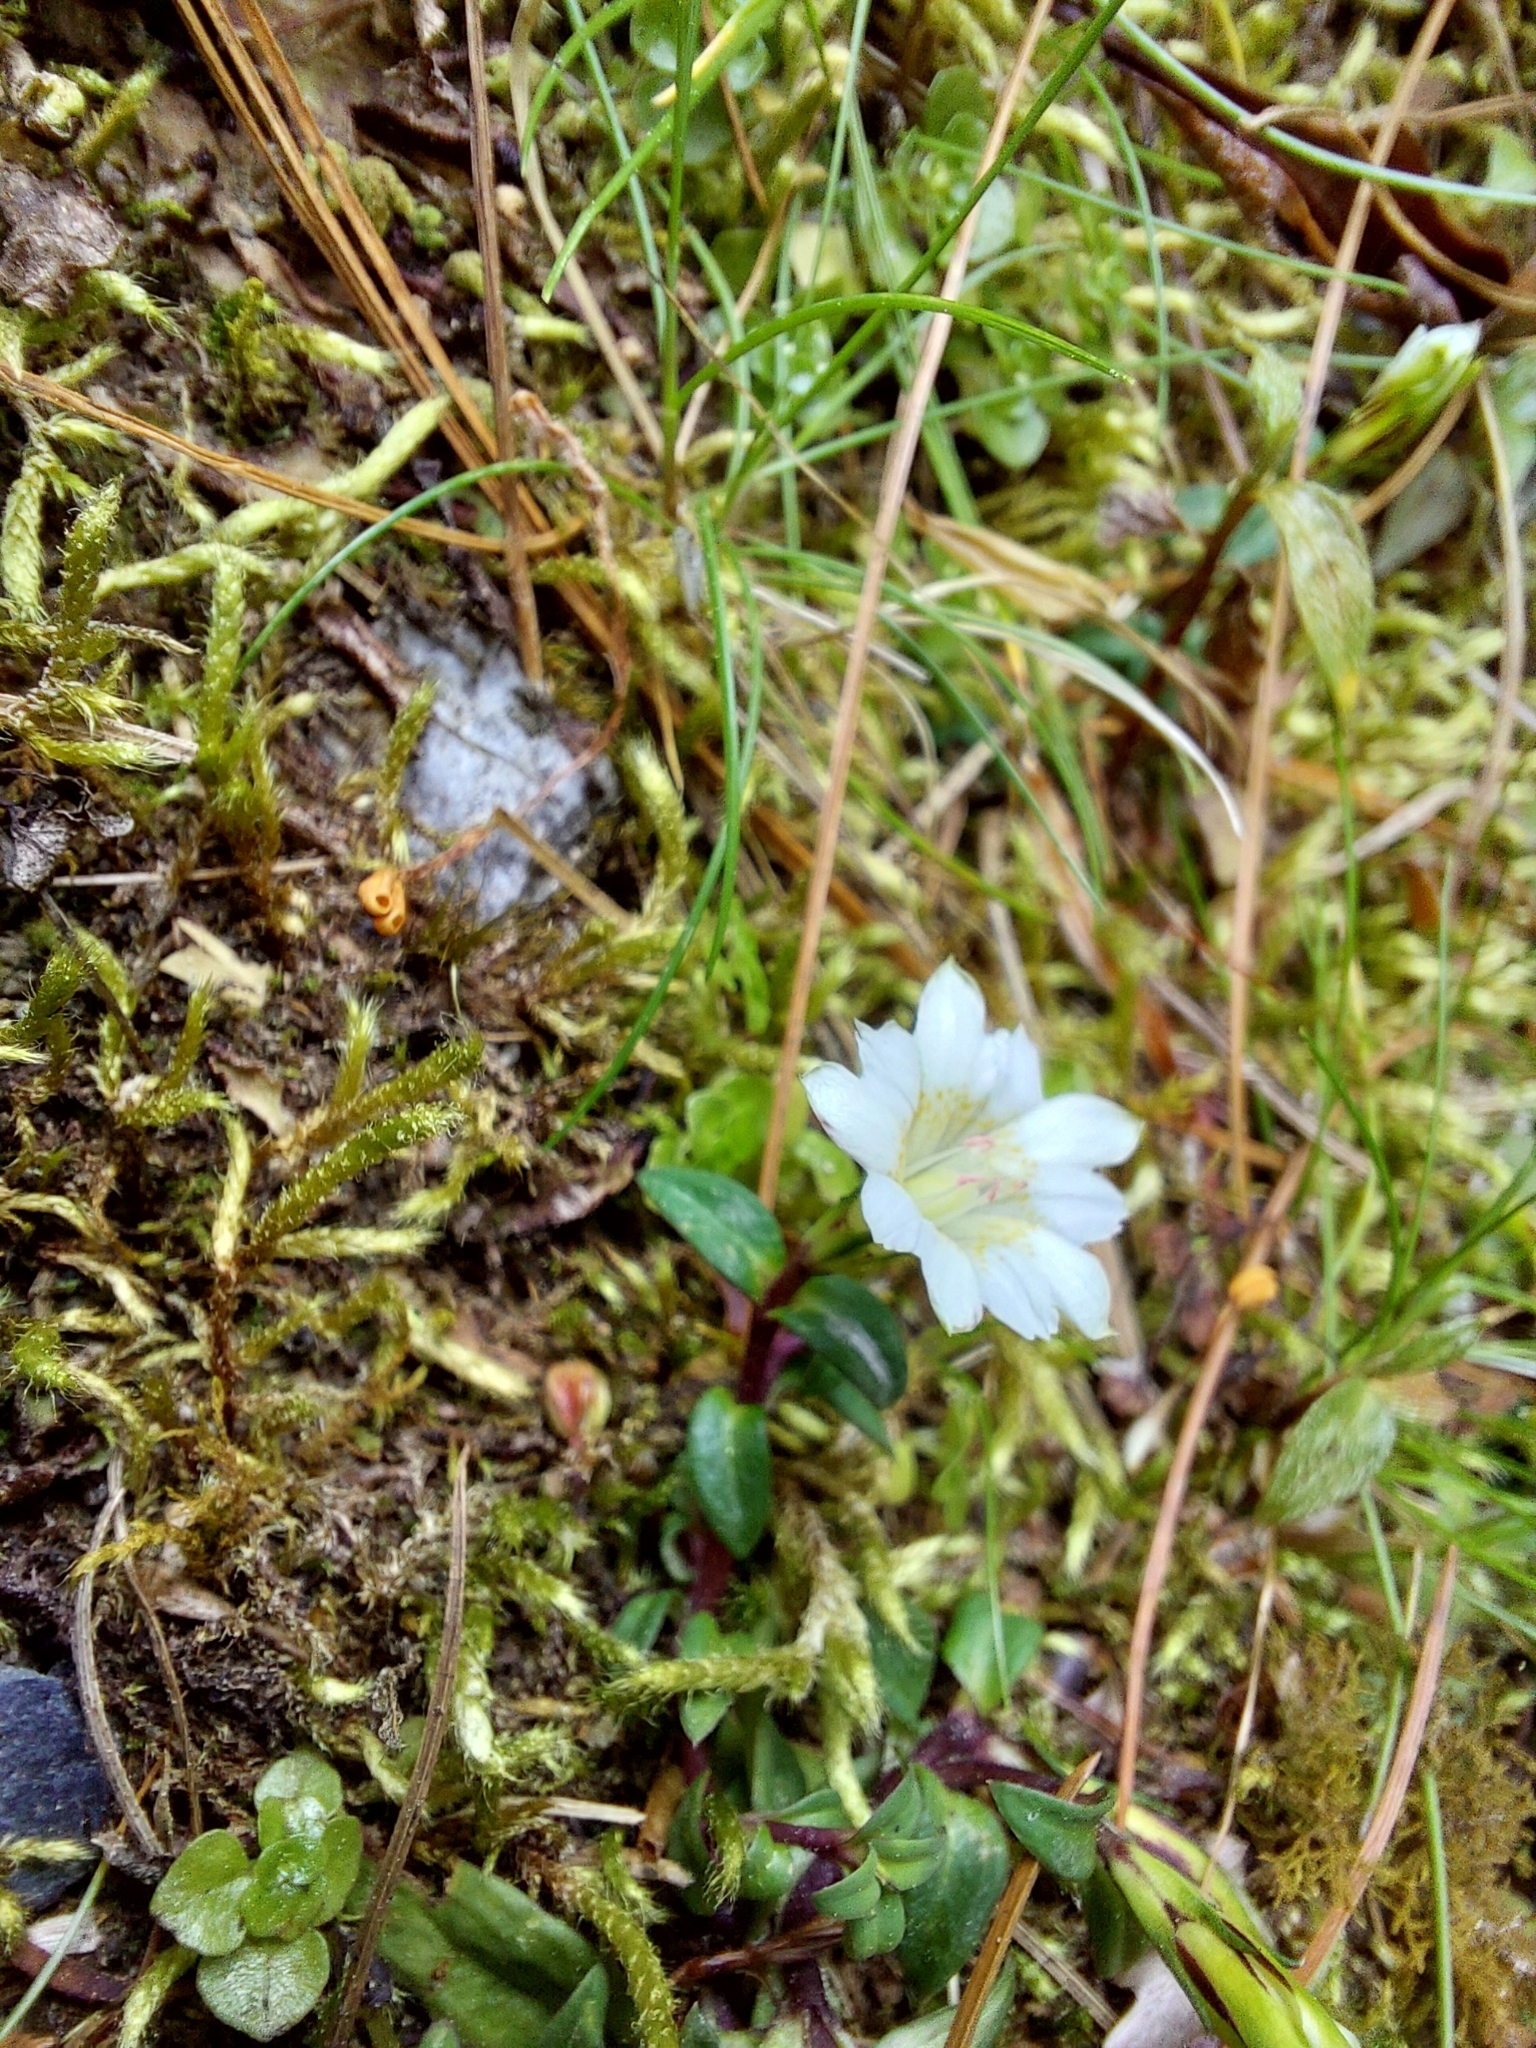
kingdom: Plantae
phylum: Tracheophyta
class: Magnoliopsida
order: Gentianales
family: Gentianaceae
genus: Gentiana
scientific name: Gentiana flavomaculata
